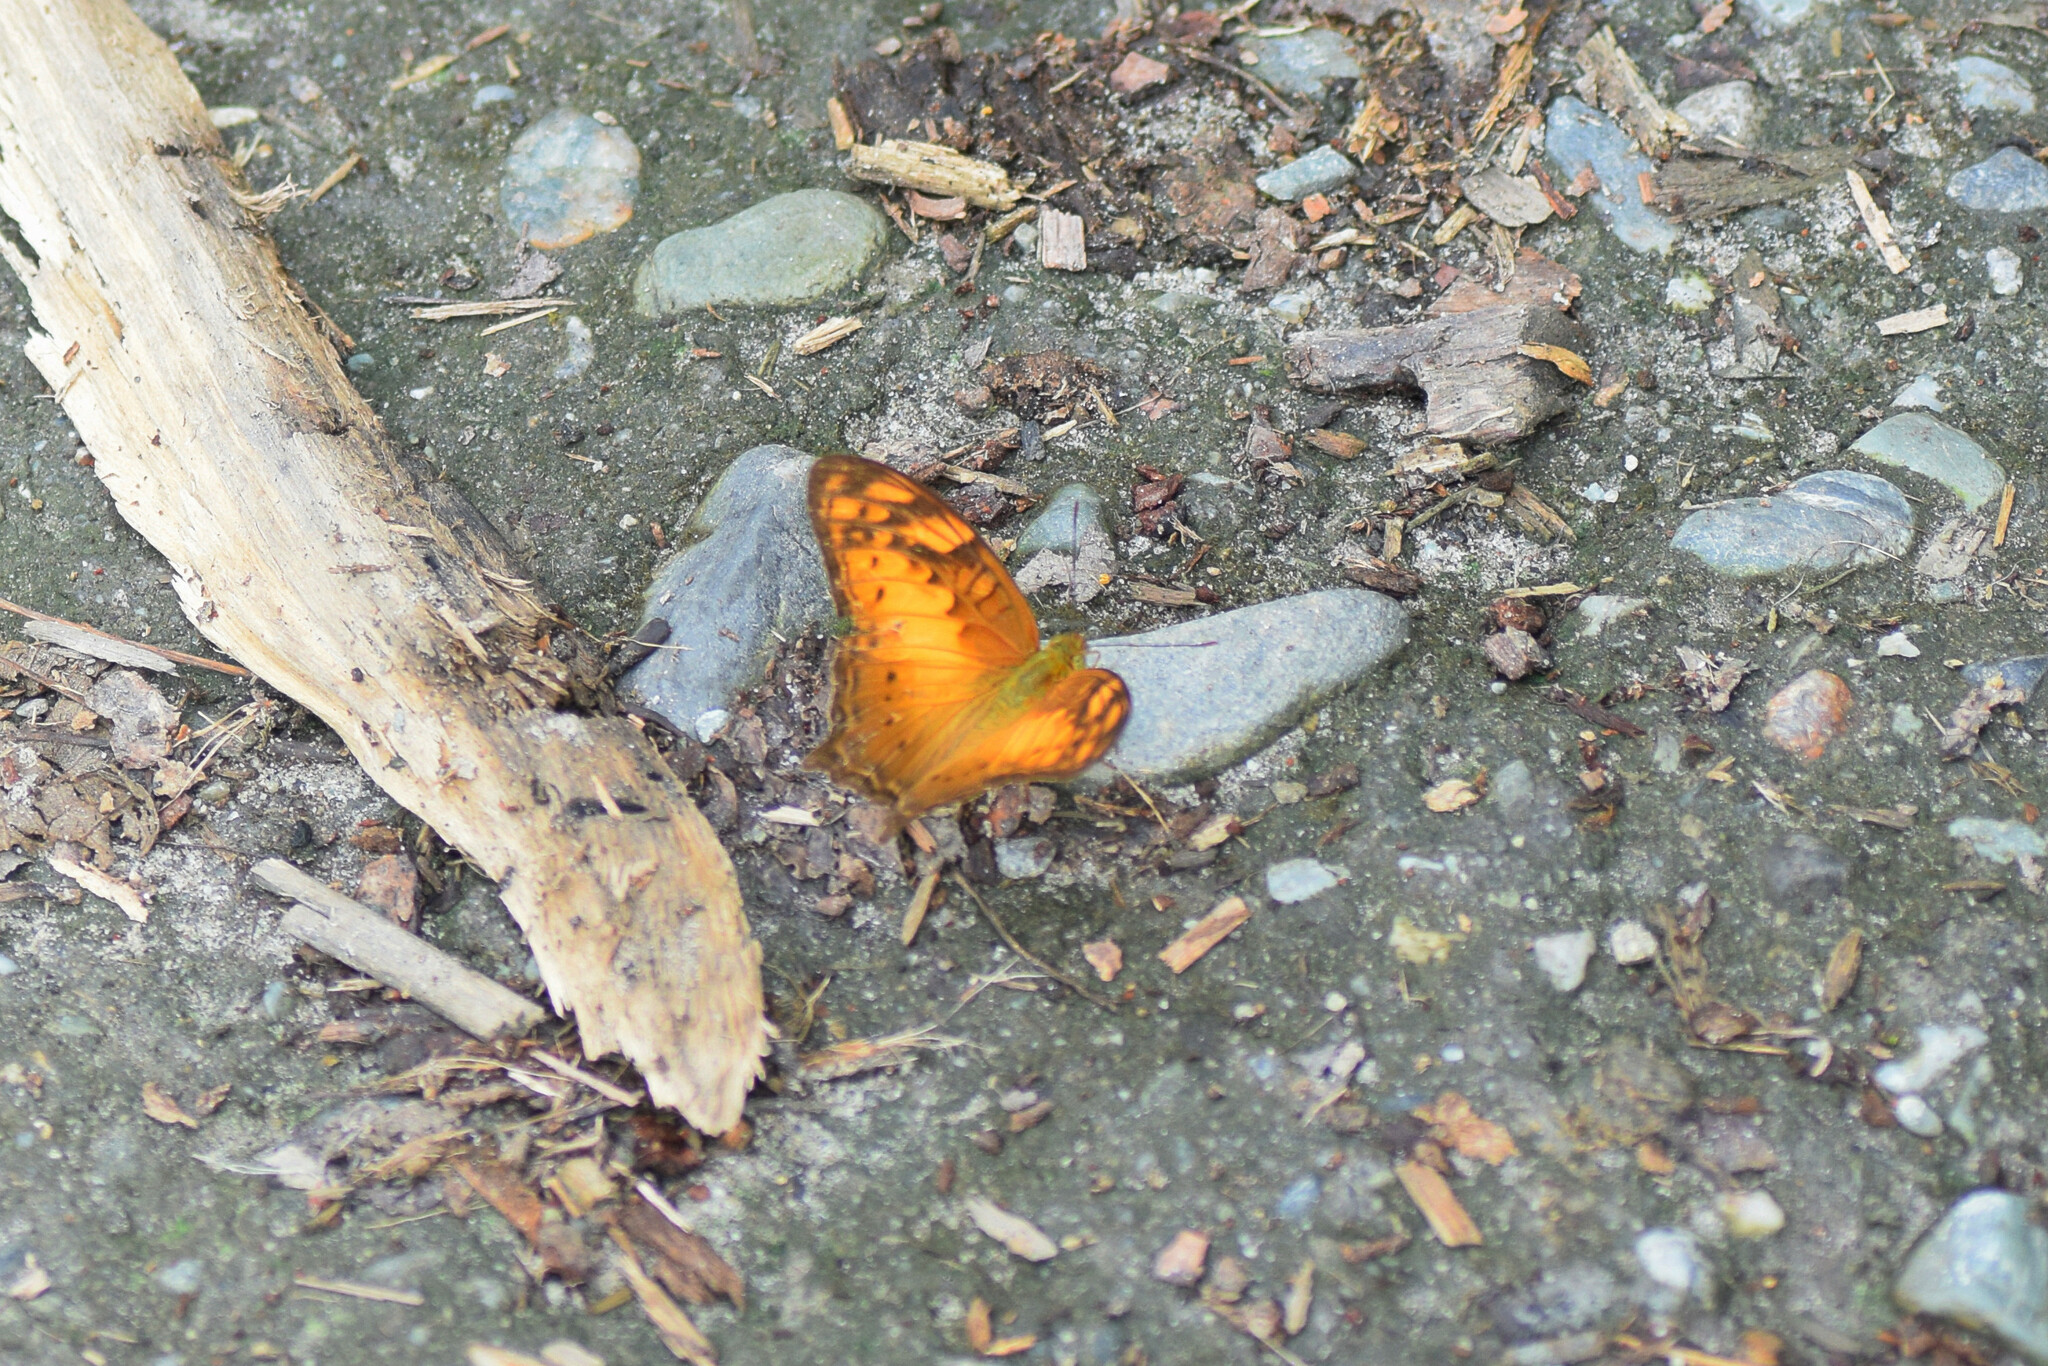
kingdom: Animalia
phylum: Arthropoda
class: Insecta
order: Lepidoptera
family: Nymphalidae
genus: Vagrans
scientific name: Vagrans egista
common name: Tailed rustic
